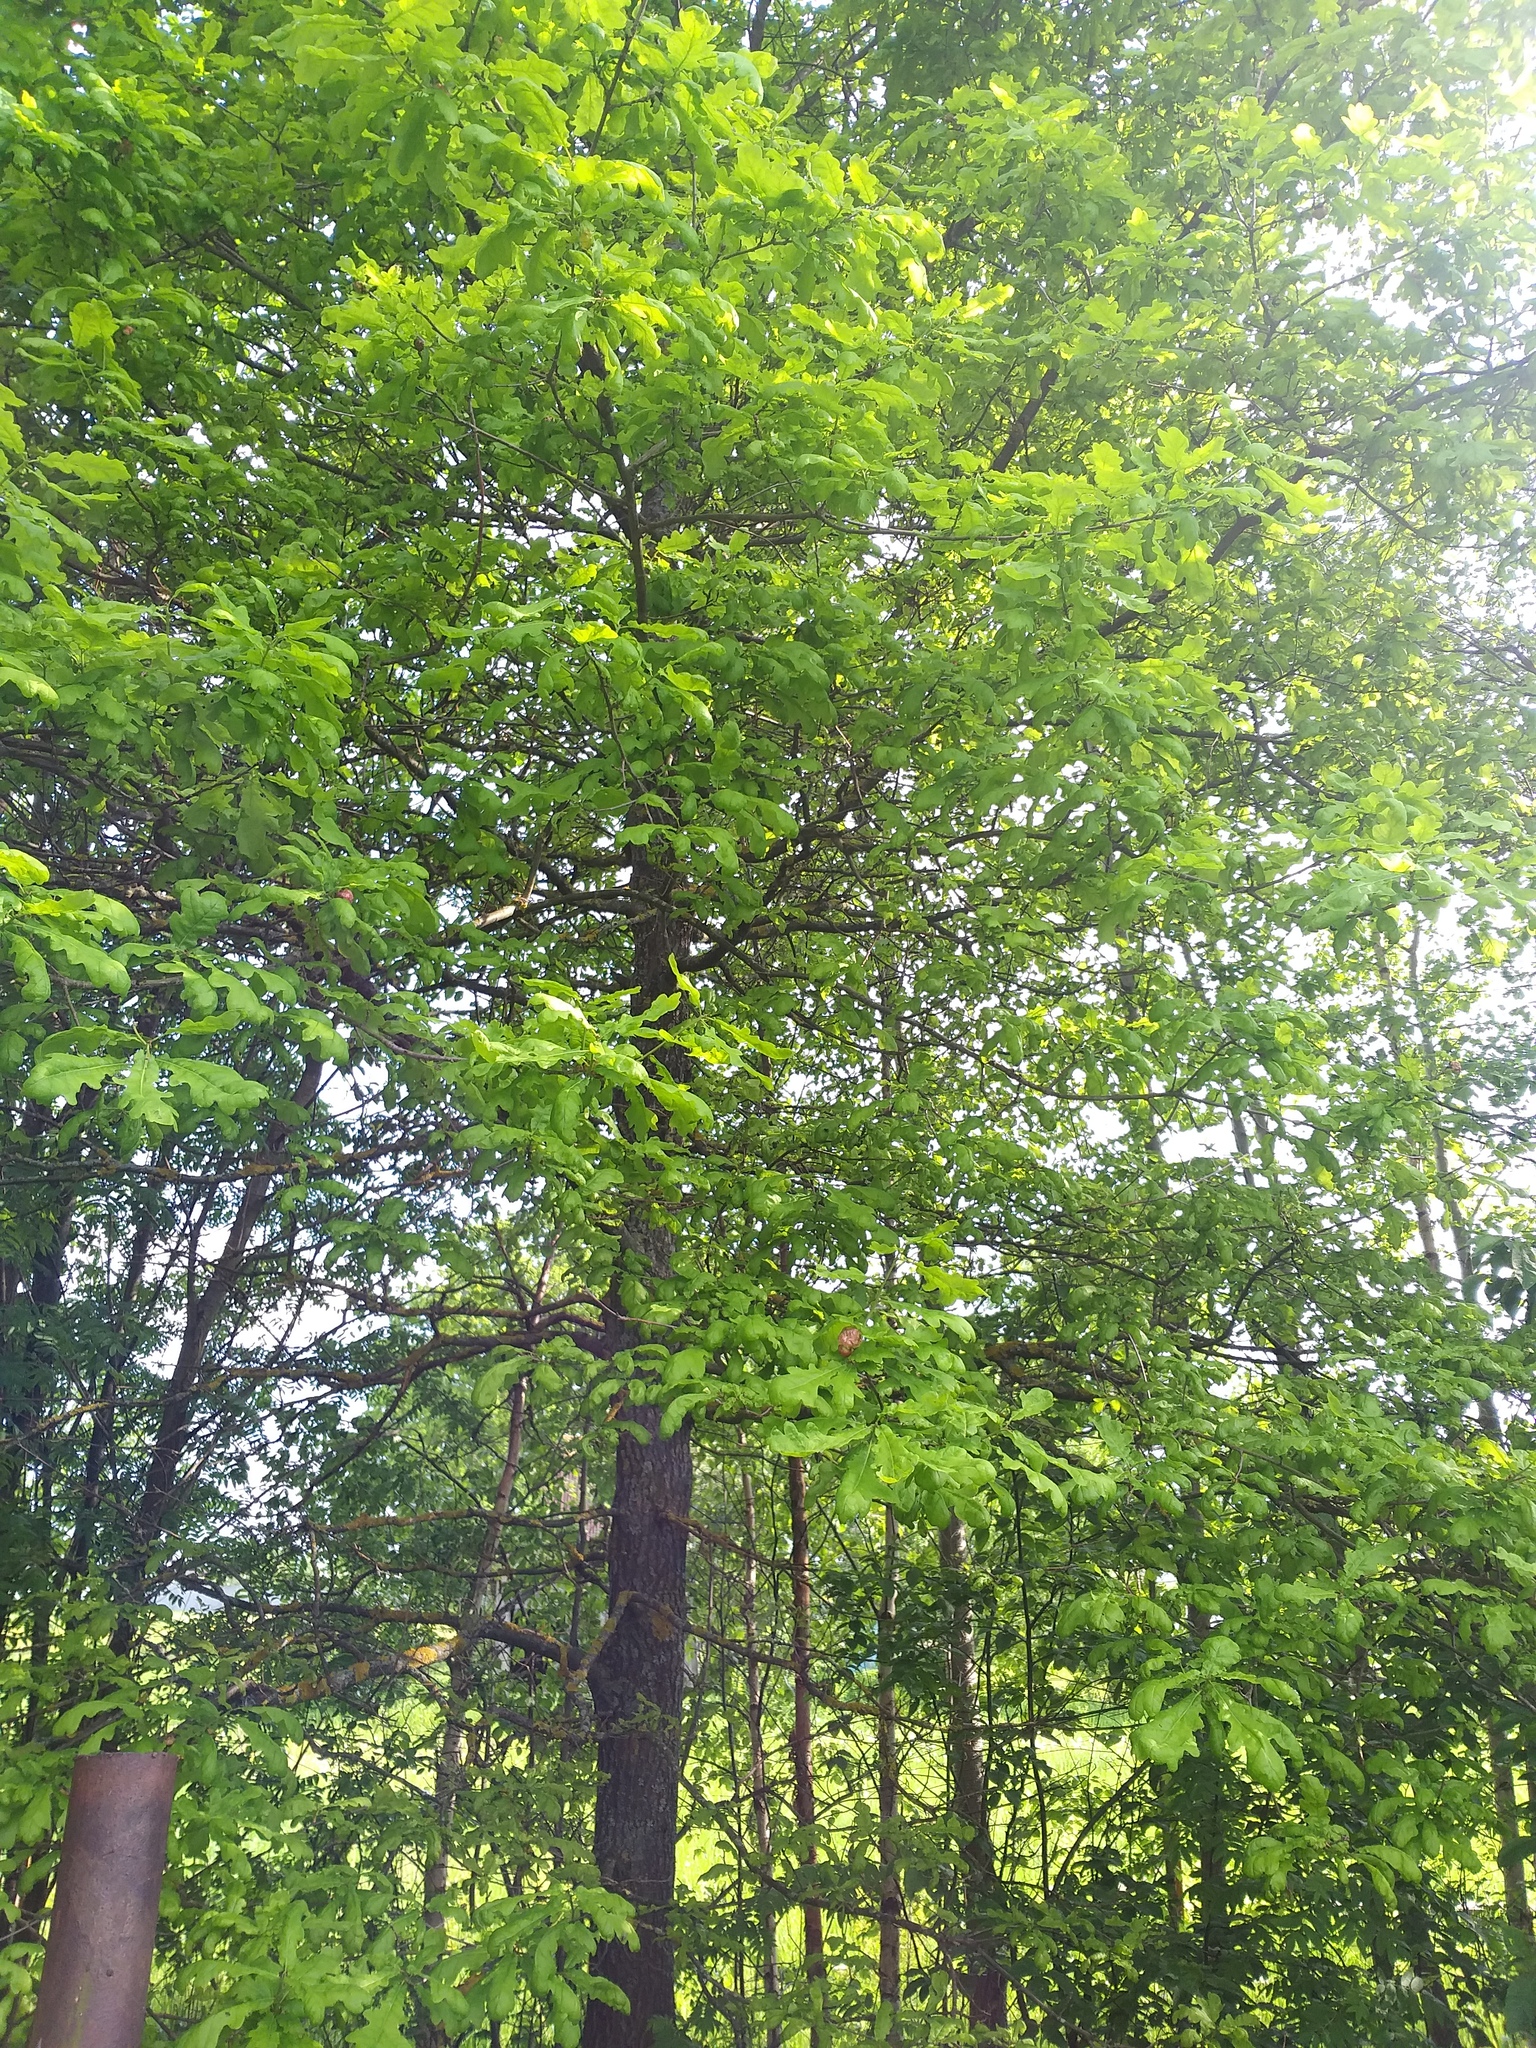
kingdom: Plantae
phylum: Tracheophyta
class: Magnoliopsida
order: Fagales
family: Fagaceae
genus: Quercus
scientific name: Quercus robur
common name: Pedunculate oak
